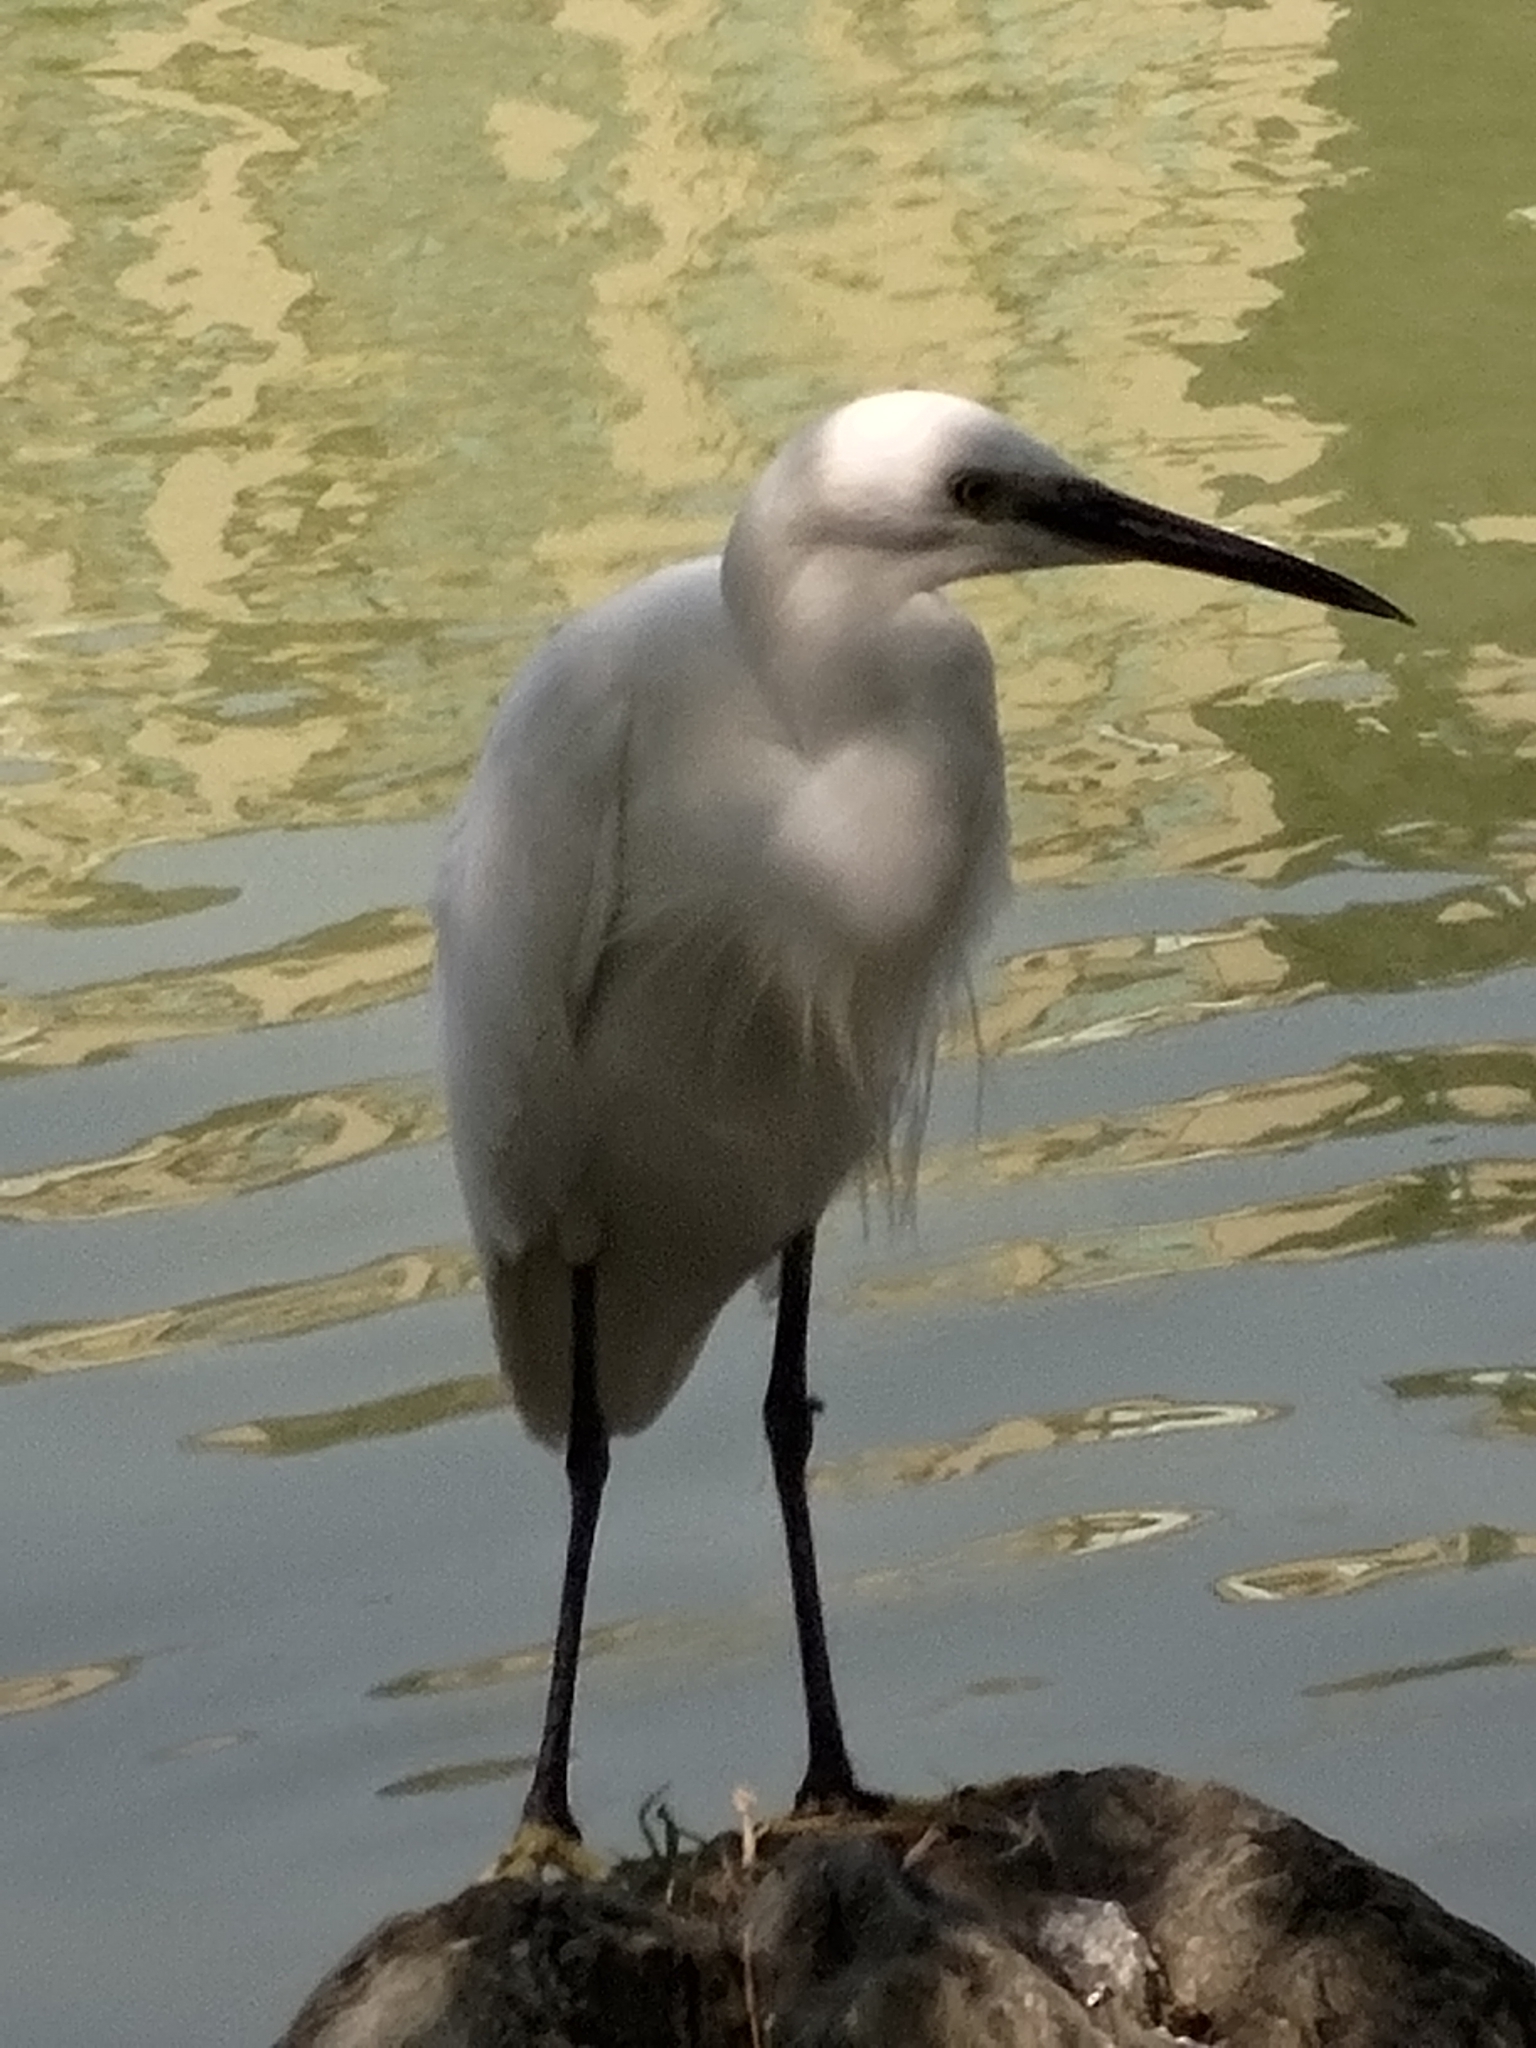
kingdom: Animalia
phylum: Chordata
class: Aves
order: Pelecaniformes
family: Ardeidae
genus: Egretta
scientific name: Egretta garzetta
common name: Little egret
